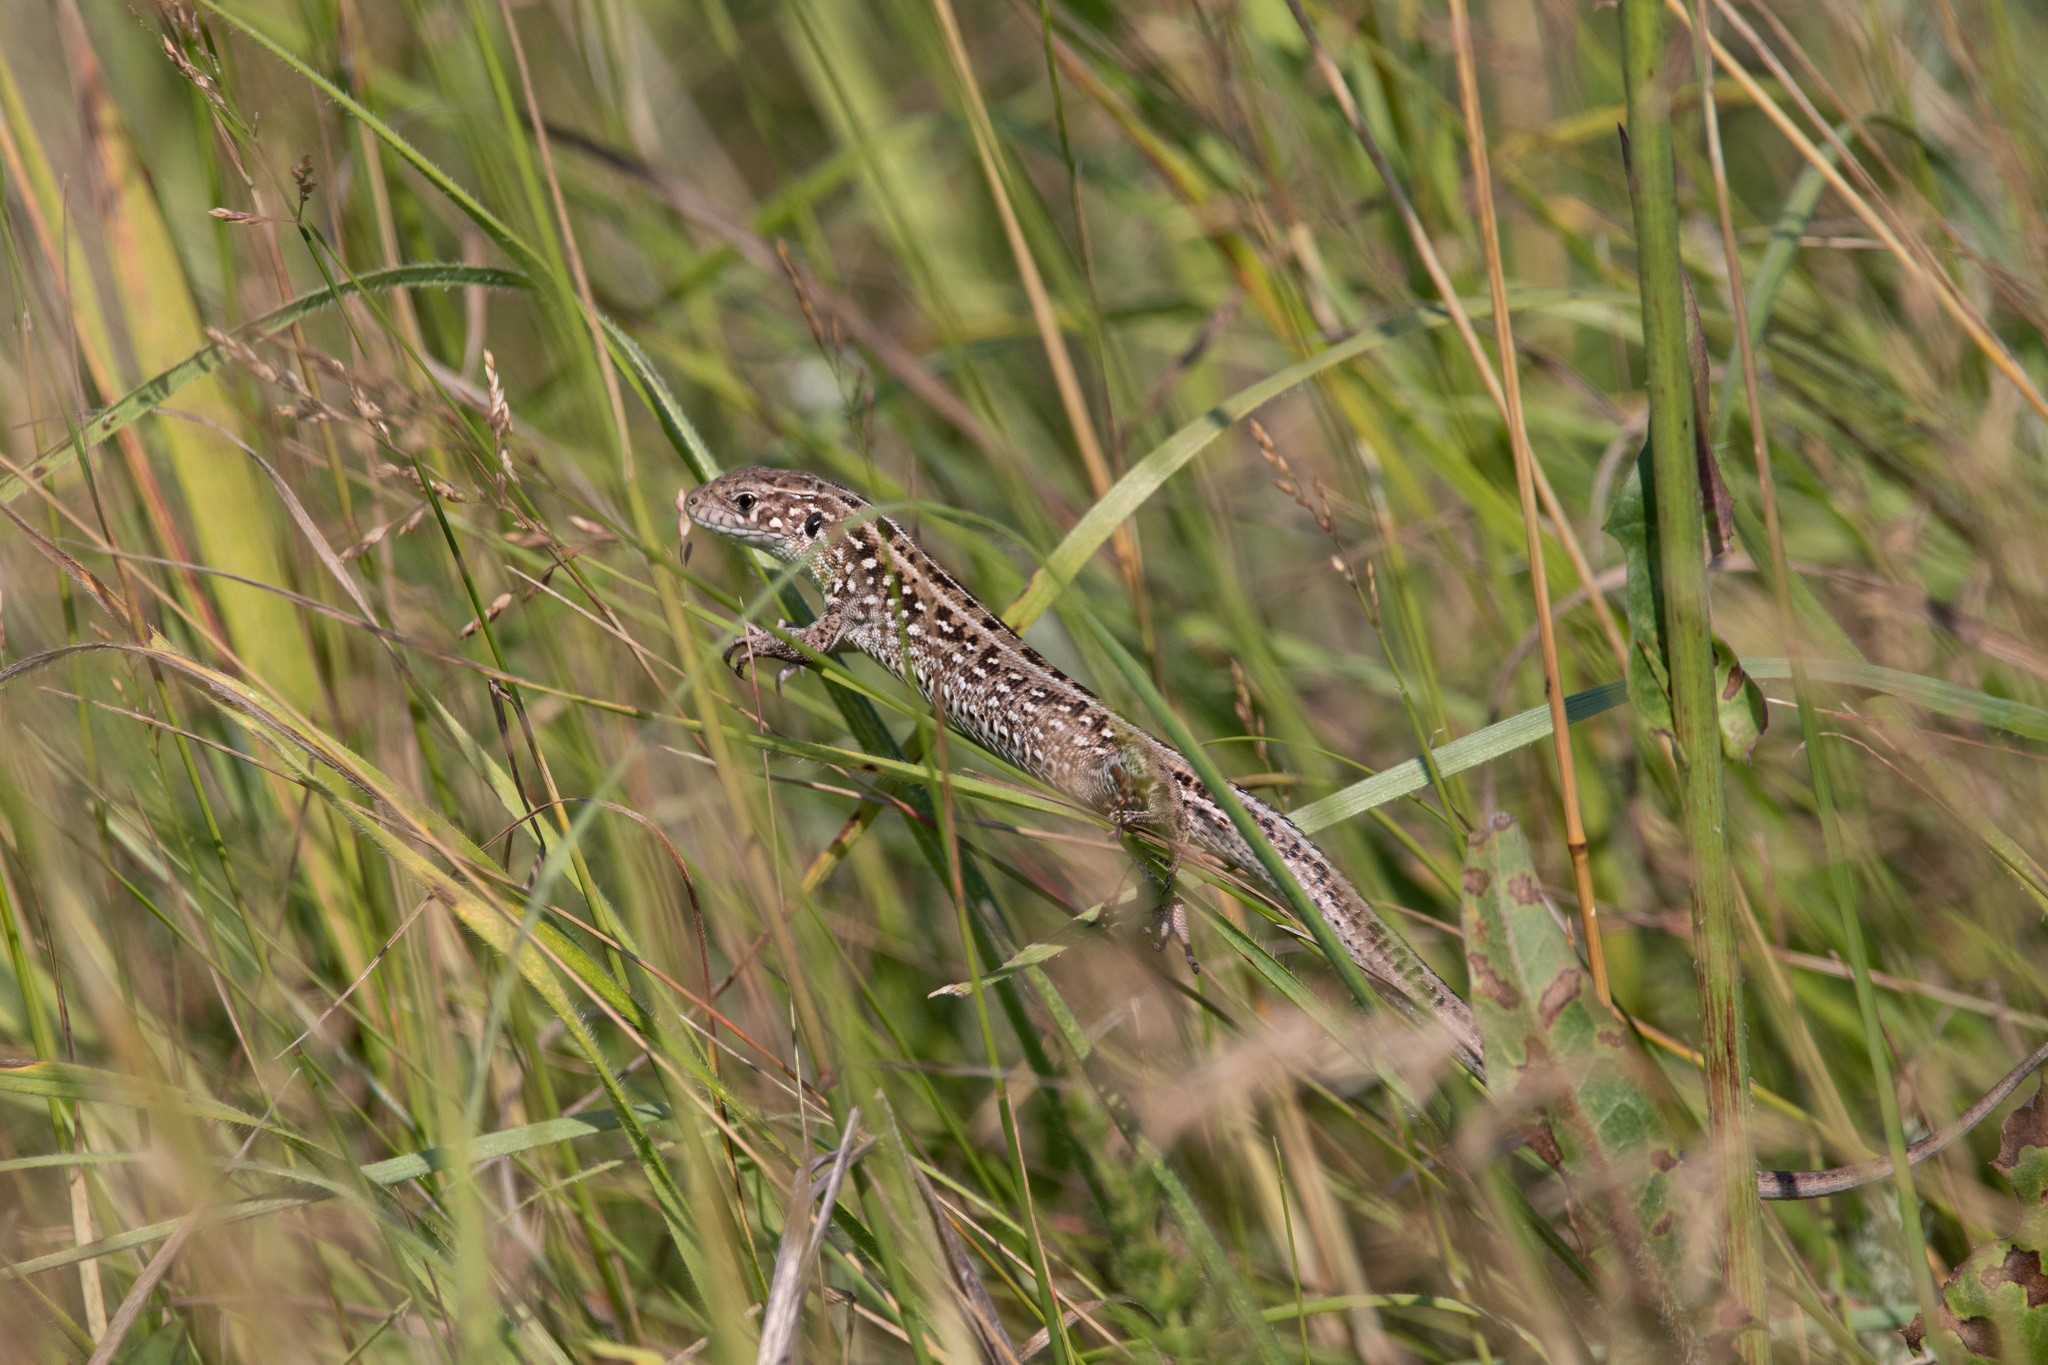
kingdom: Animalia
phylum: Chordata
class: Squamata
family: Lacertidae
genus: Lacerta
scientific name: Lacerta agilis
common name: Sand lizard
